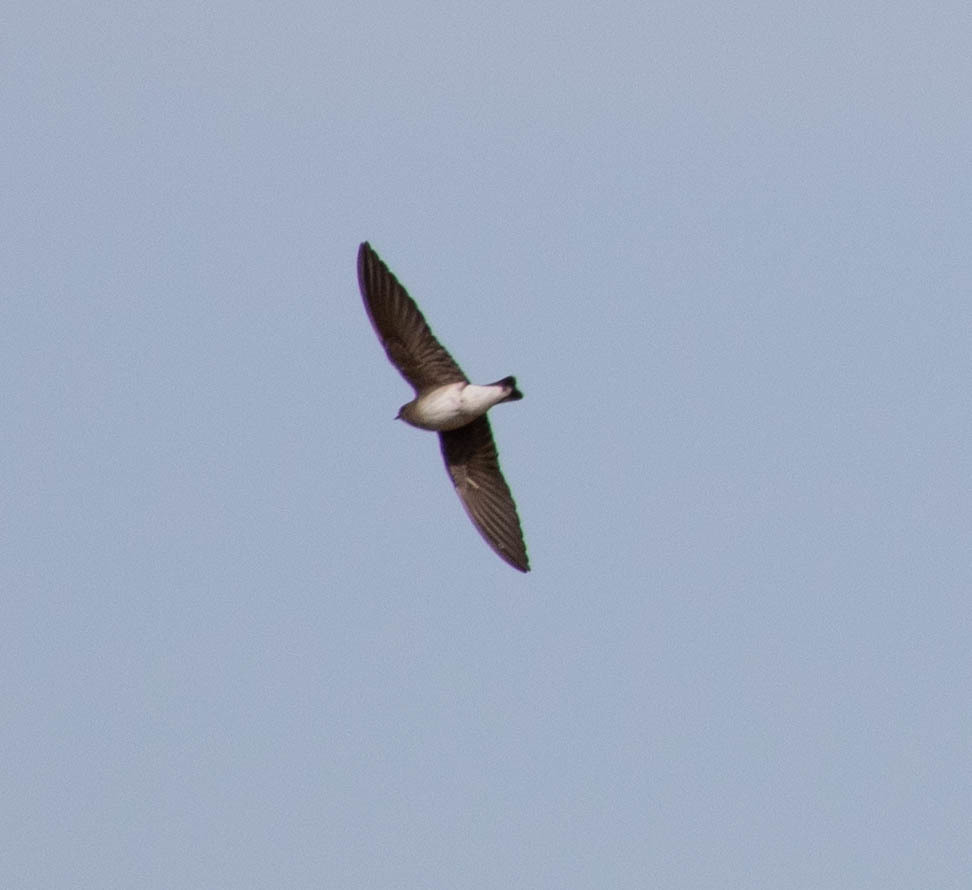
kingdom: Animalia
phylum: Chordata
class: Aves
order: Passeriformes
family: Hirundinidae
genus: Stelgidopteryx
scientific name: Stelgidopteryx serripennis
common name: Northern rough-winged swallow
